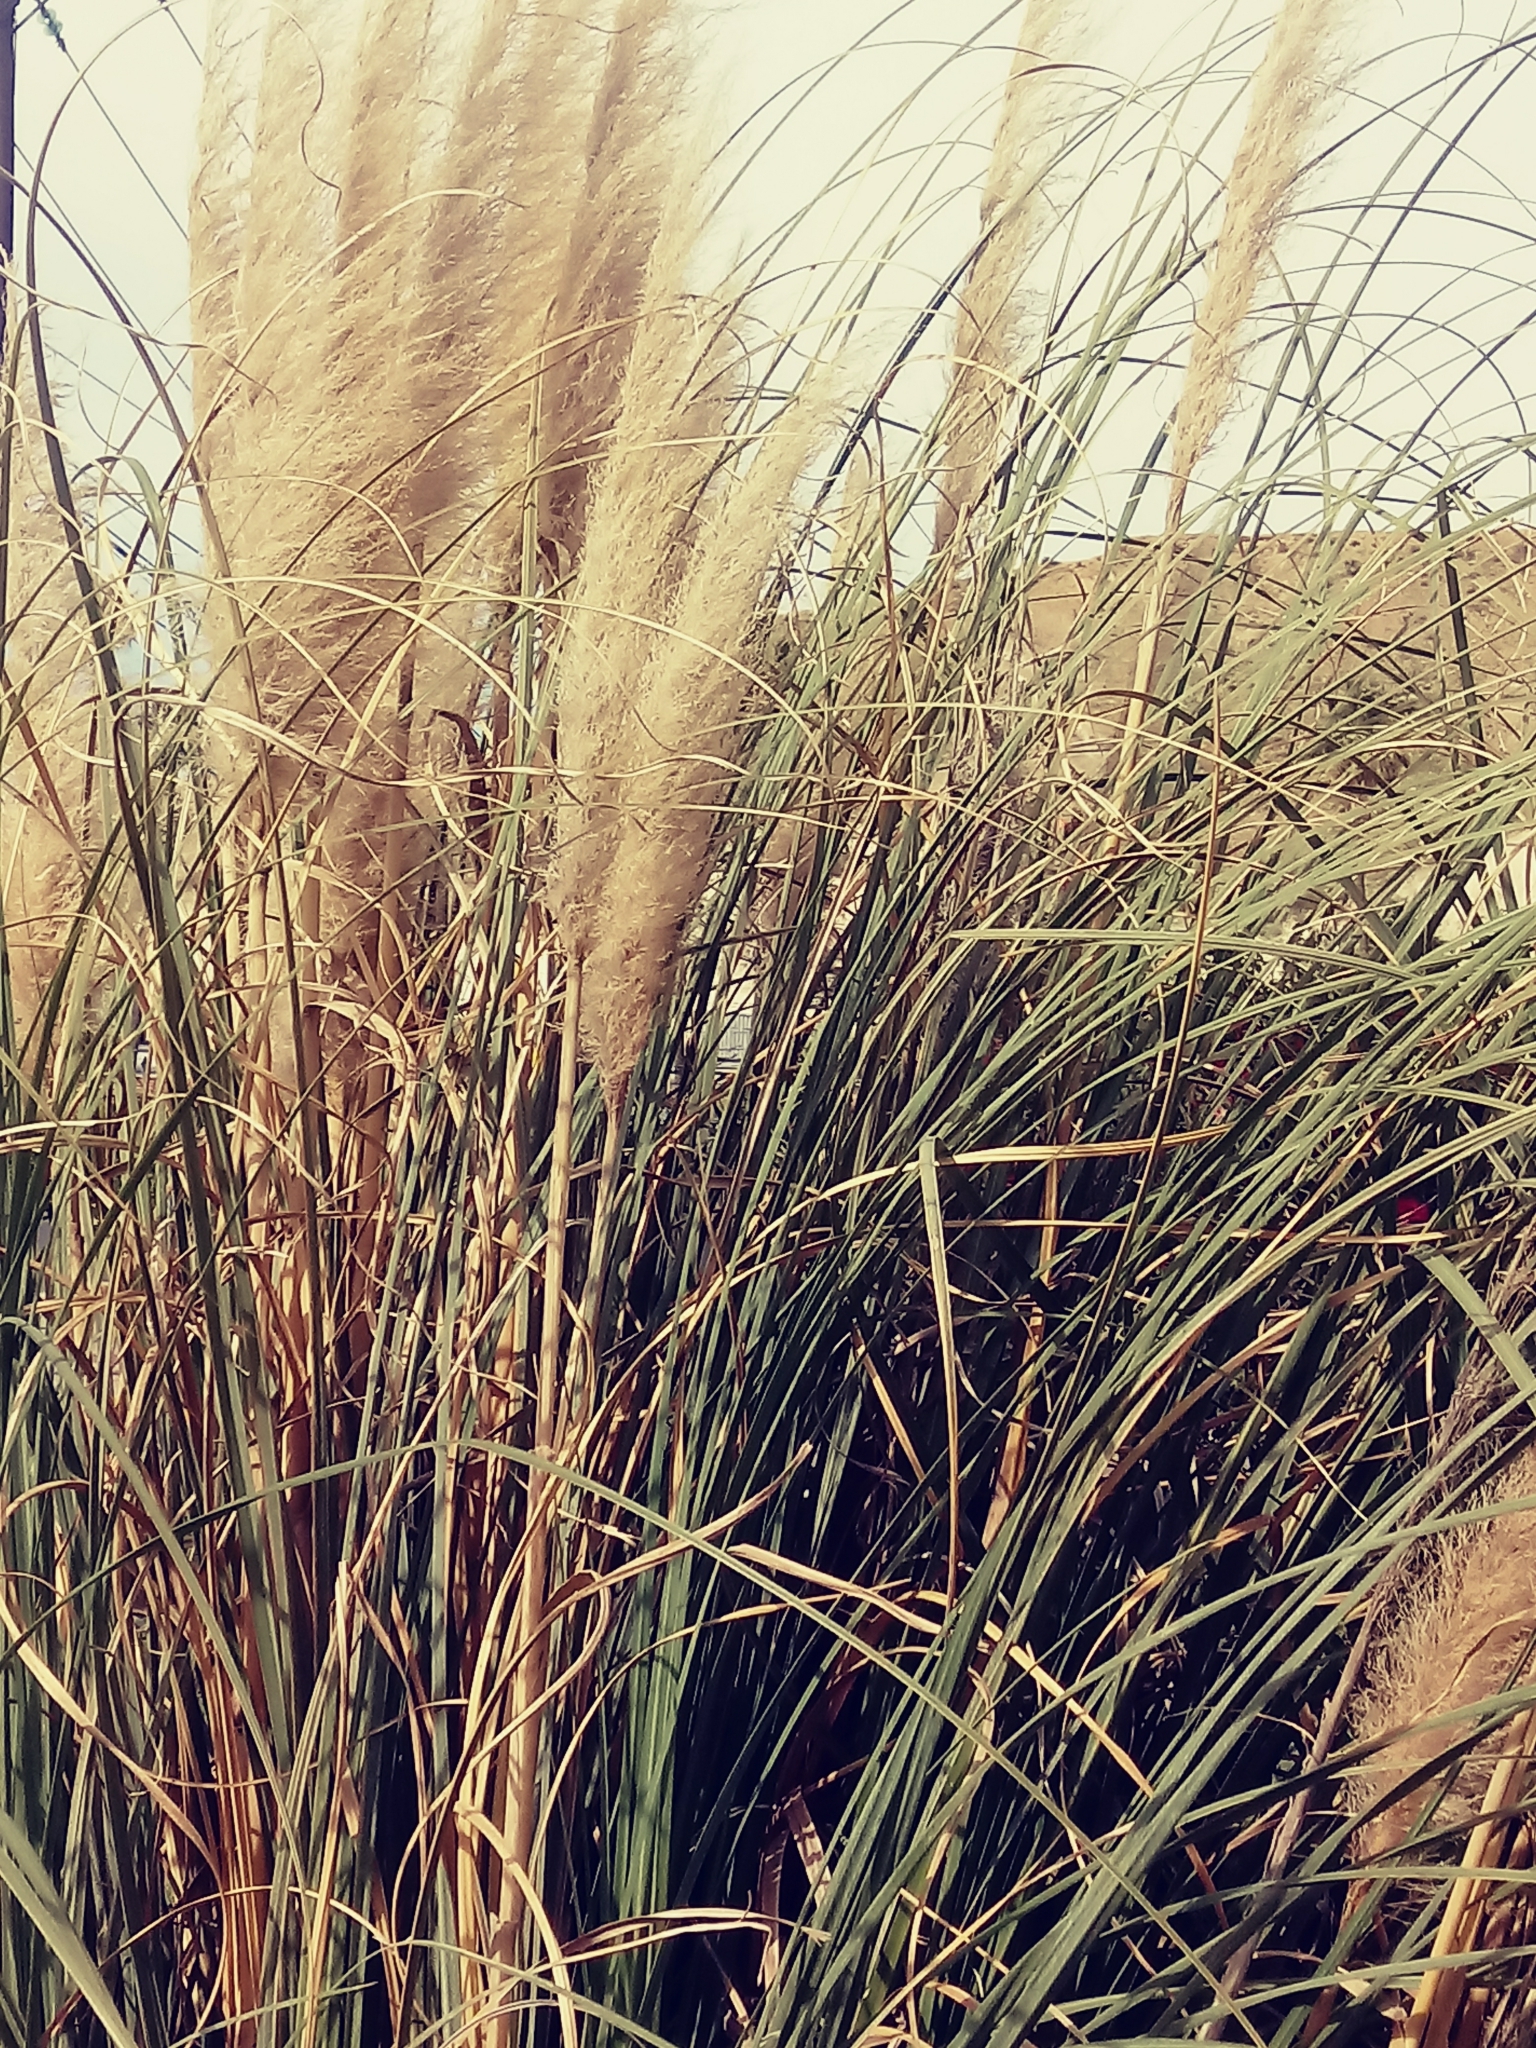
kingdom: Plantae
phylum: Tracheophyta
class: Liliopsida
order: Poales
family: Poaceae
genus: Cortaderia
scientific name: Cortaderia selloana
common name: Uruguayan pampas grass
